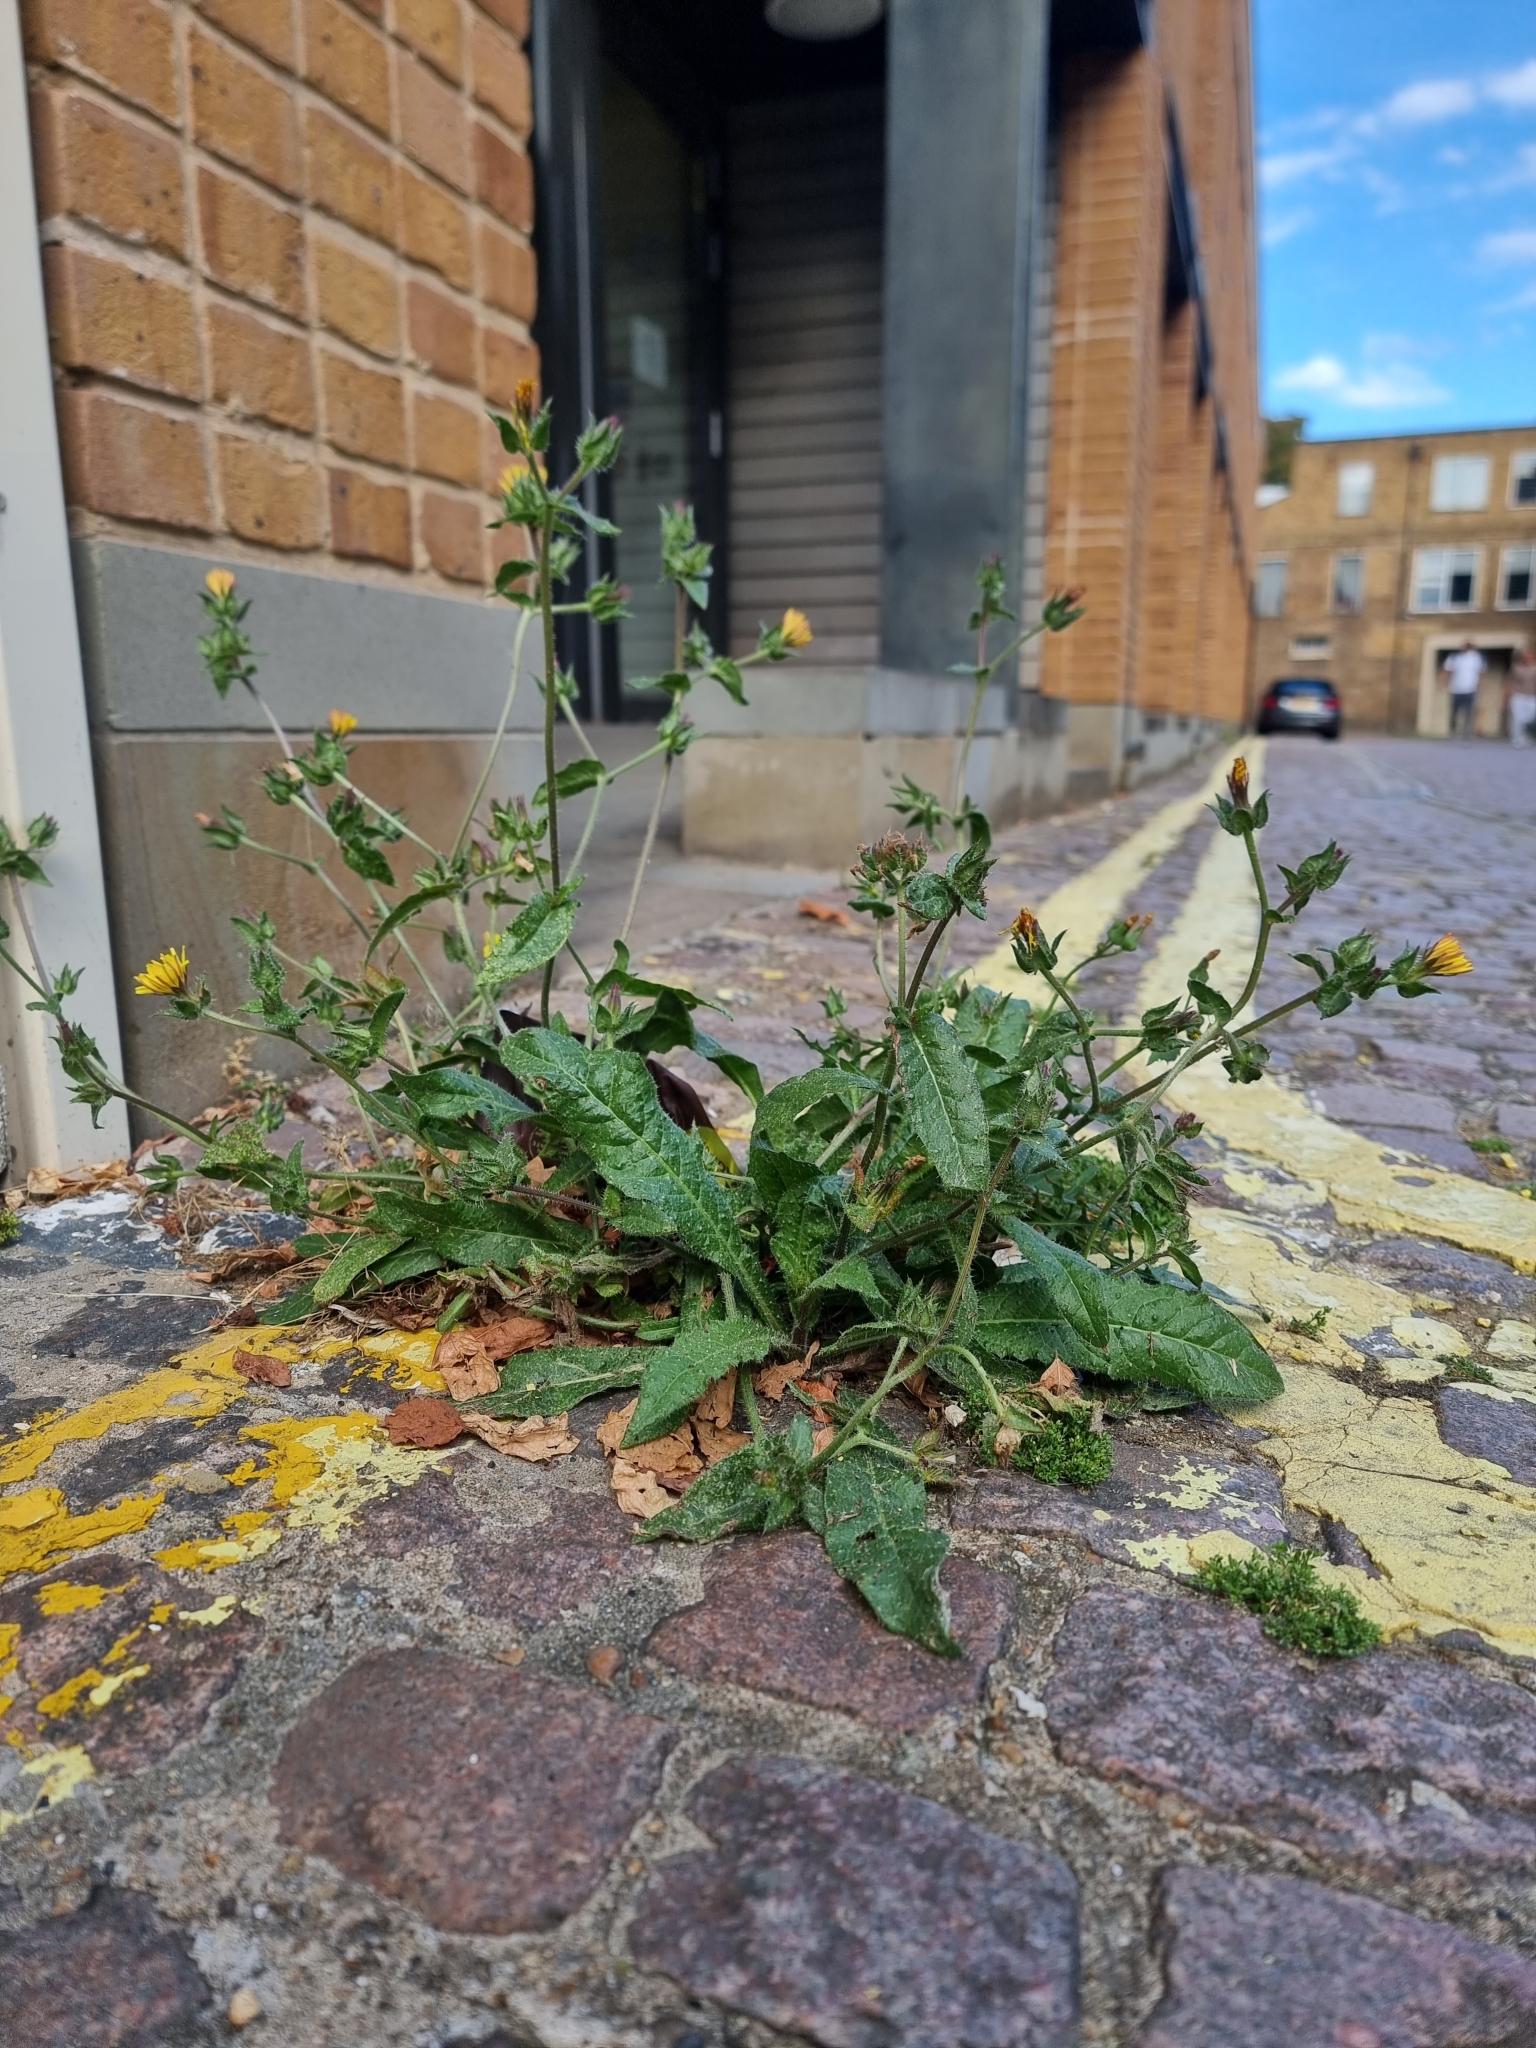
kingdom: Plantae
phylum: Tracheophyta
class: Magnoliopsida
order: Asterales
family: Asteraceae
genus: Helminthotheca
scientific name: Helminthotheca echioides
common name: Ox-tongue
